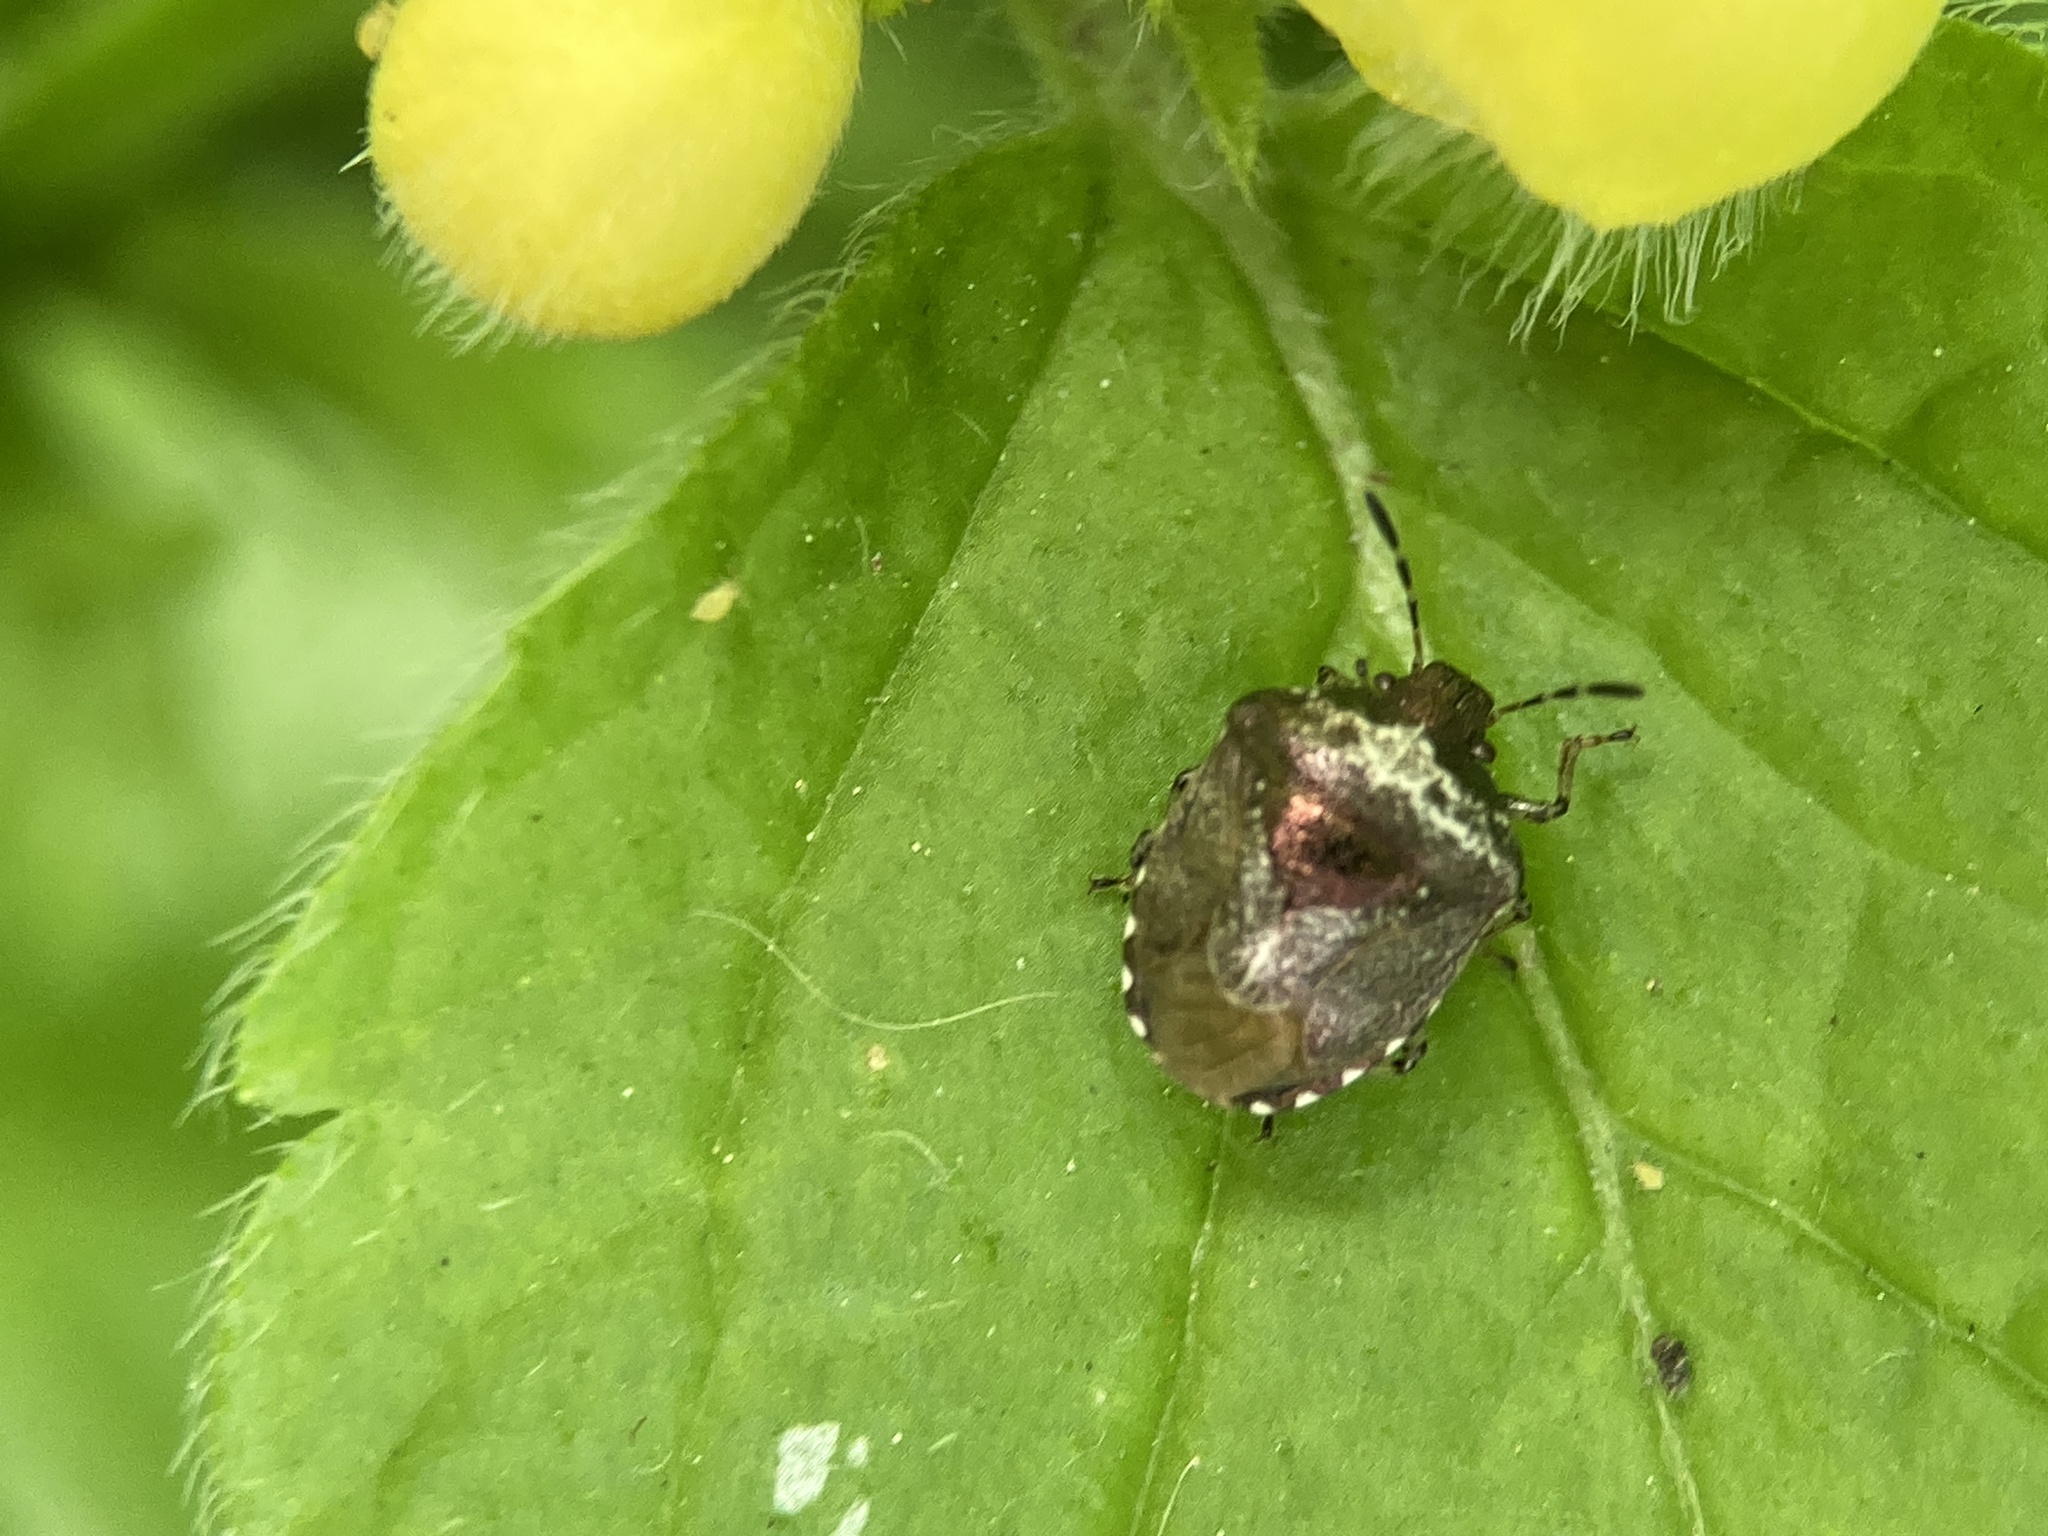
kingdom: Animalia
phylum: Arthropoda
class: Insecta
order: Hemiptera
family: Pentatomidae
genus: Eysarcoris
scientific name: Eysarcoris venustissimus
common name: Woundwort shieldbug
